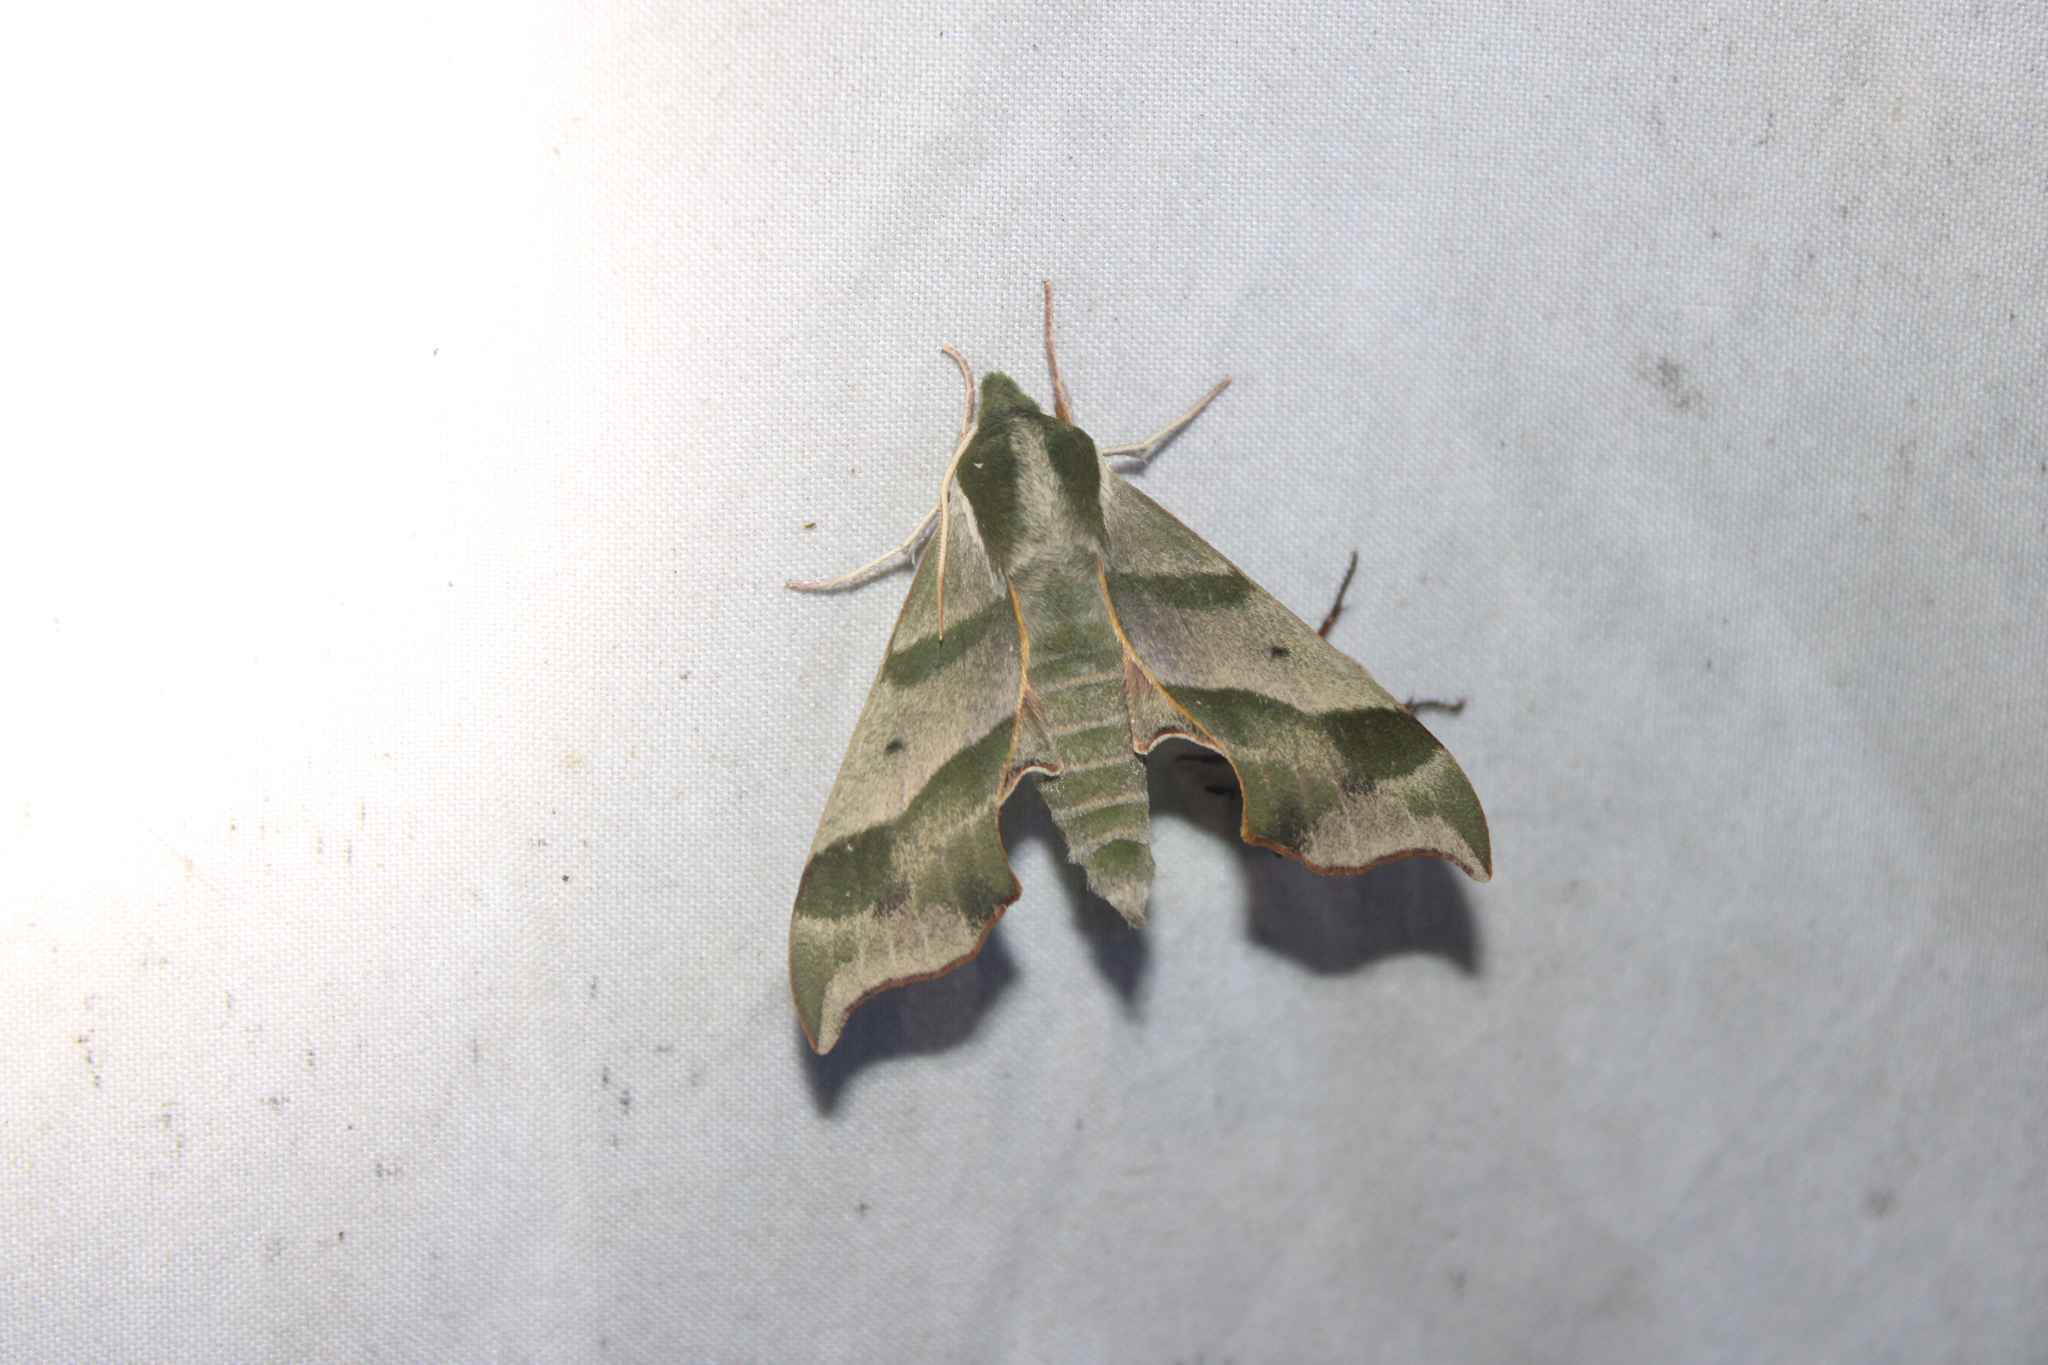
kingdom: Animalia
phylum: Arthropoda
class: Insecta
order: Lepidoptera
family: Sphingidae
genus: Darapsa
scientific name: Darapsa myron
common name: Hog sphinx
